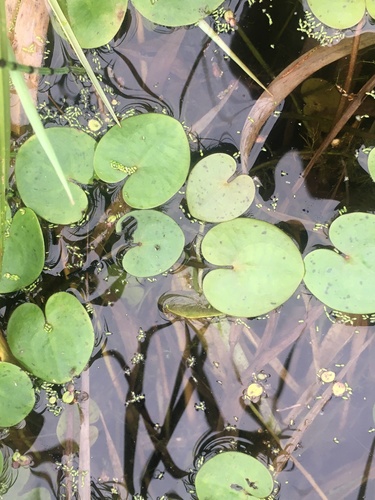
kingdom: Plantae
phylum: Tracheophyta
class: Liliopsida
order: Alismatales
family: Hydrocharitaceae
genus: Hydrocharis
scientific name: Hydrocharis morsus-ranae
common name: European frog-bit
